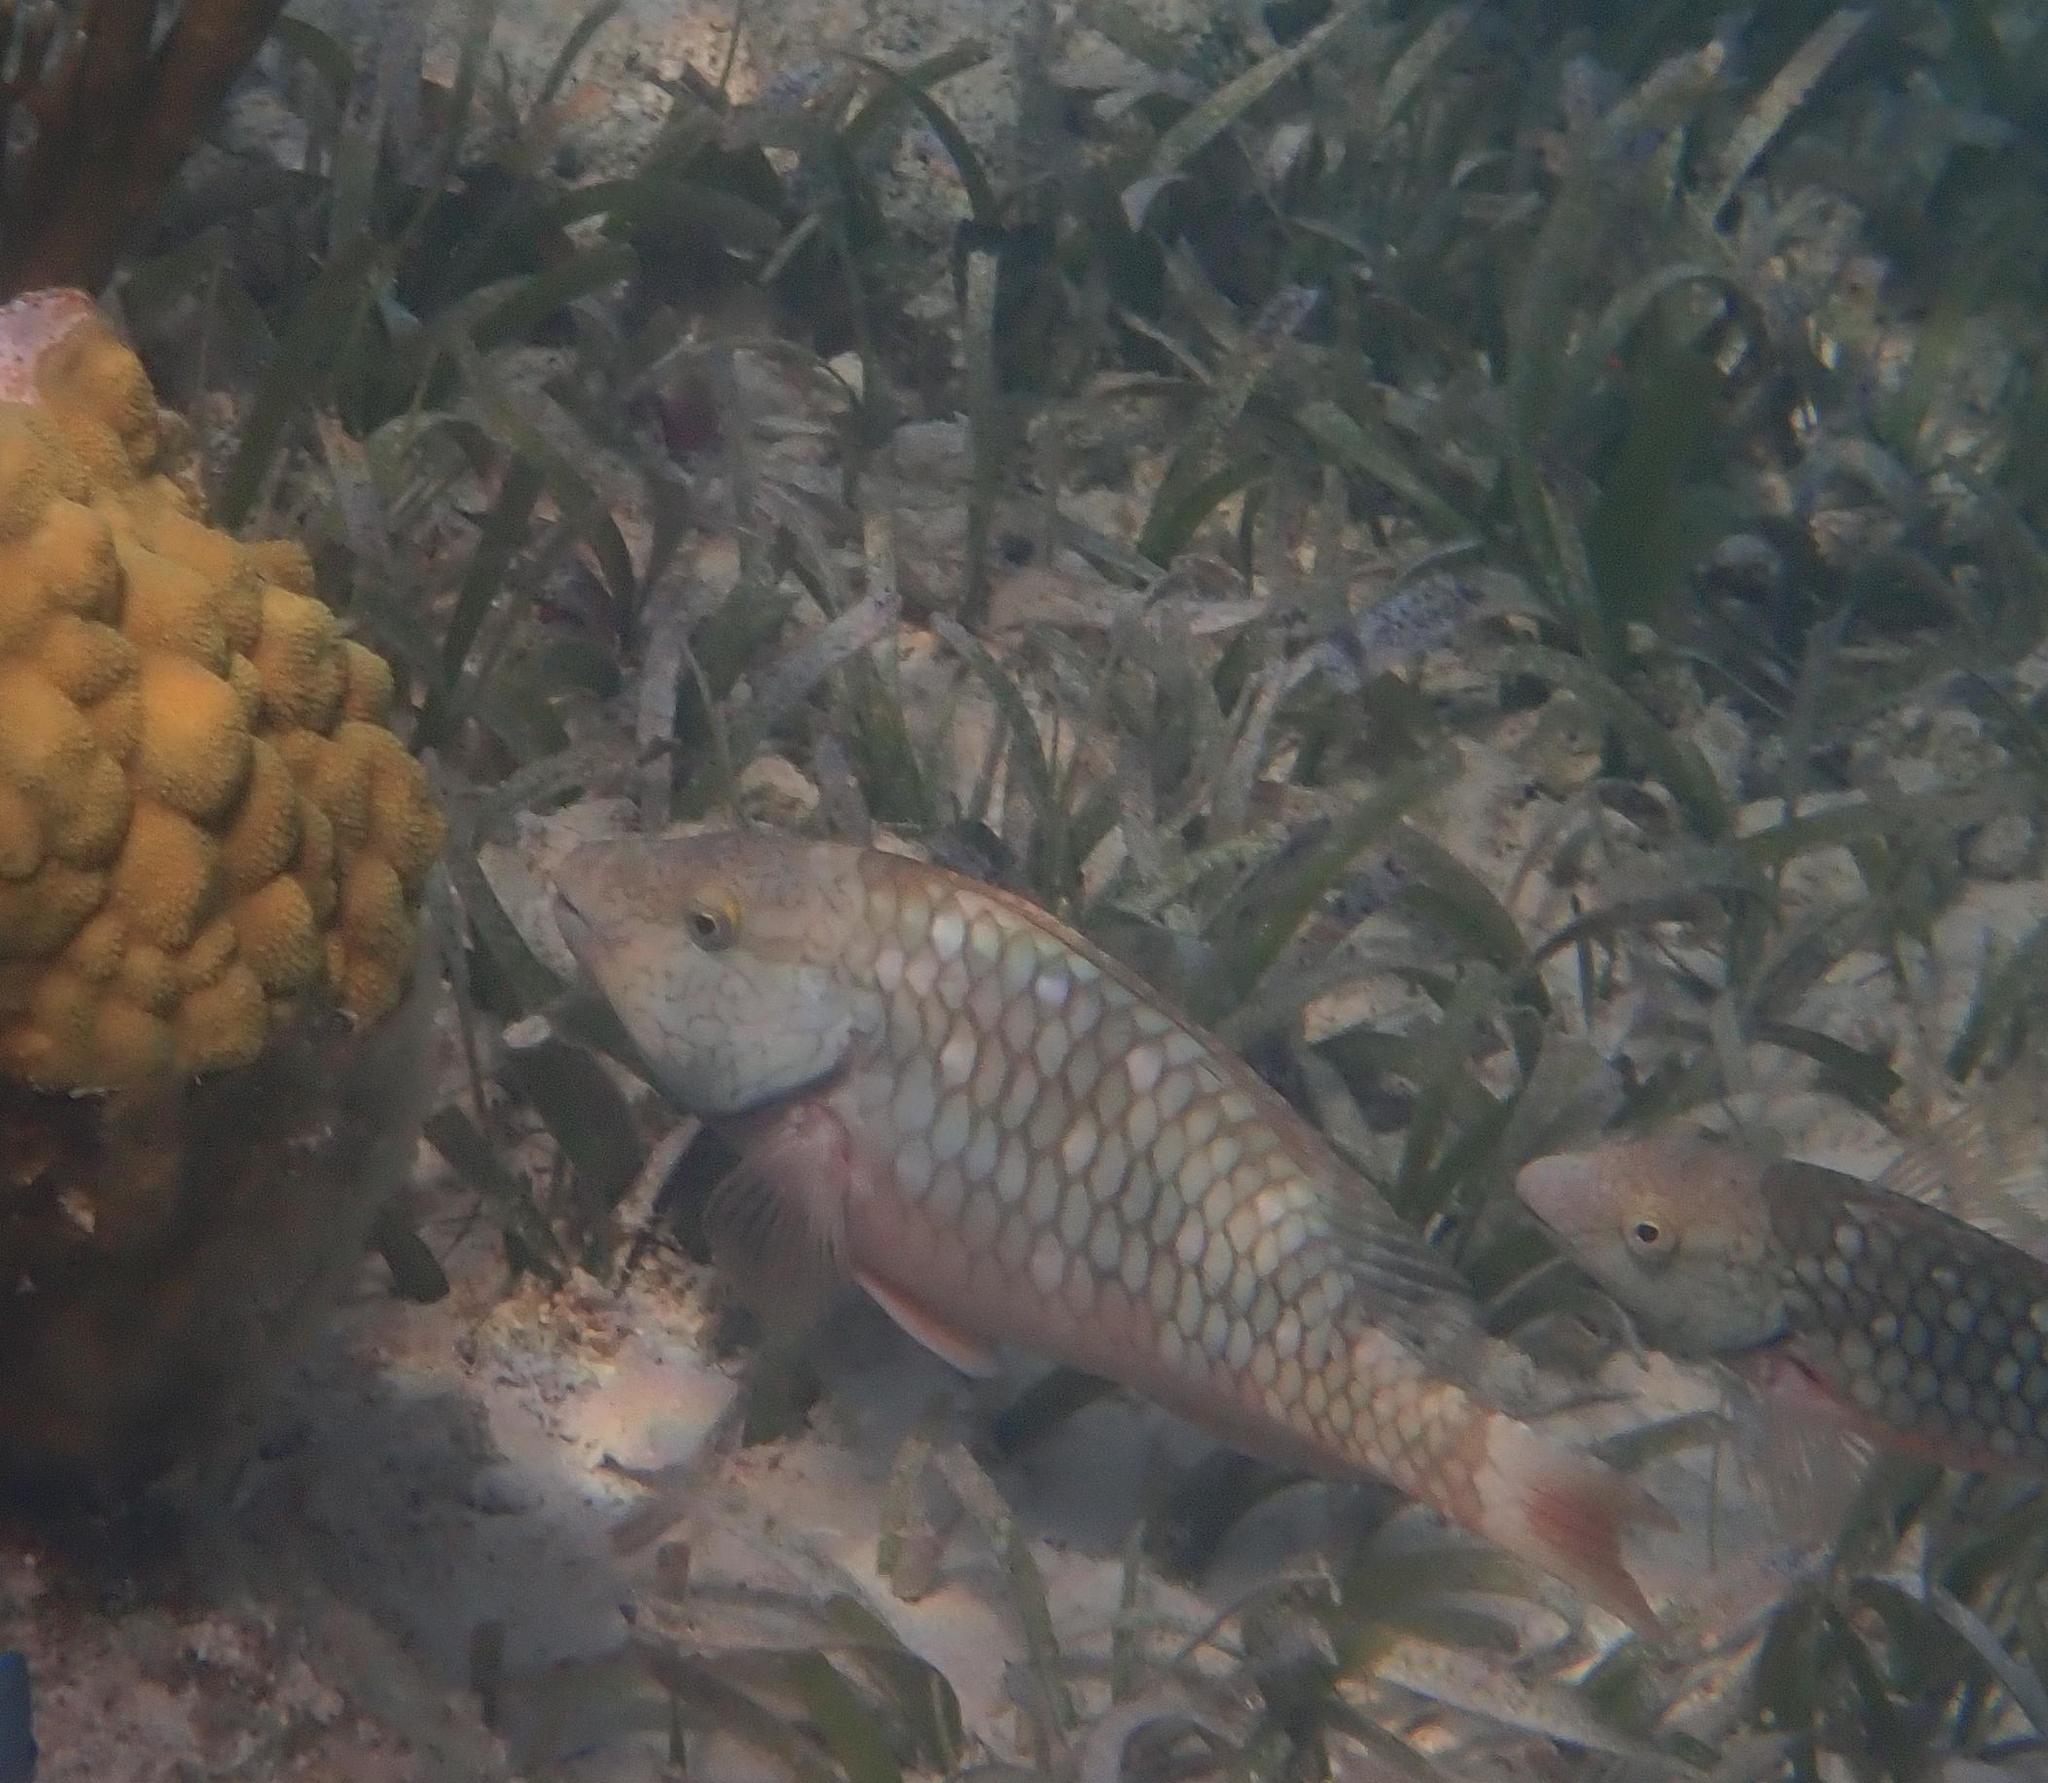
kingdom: Animalia
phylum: Chordata
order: Perciformes
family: Scaridae
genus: Sparisoma
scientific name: Sparisoma viride
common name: Stoplight parrotfish
